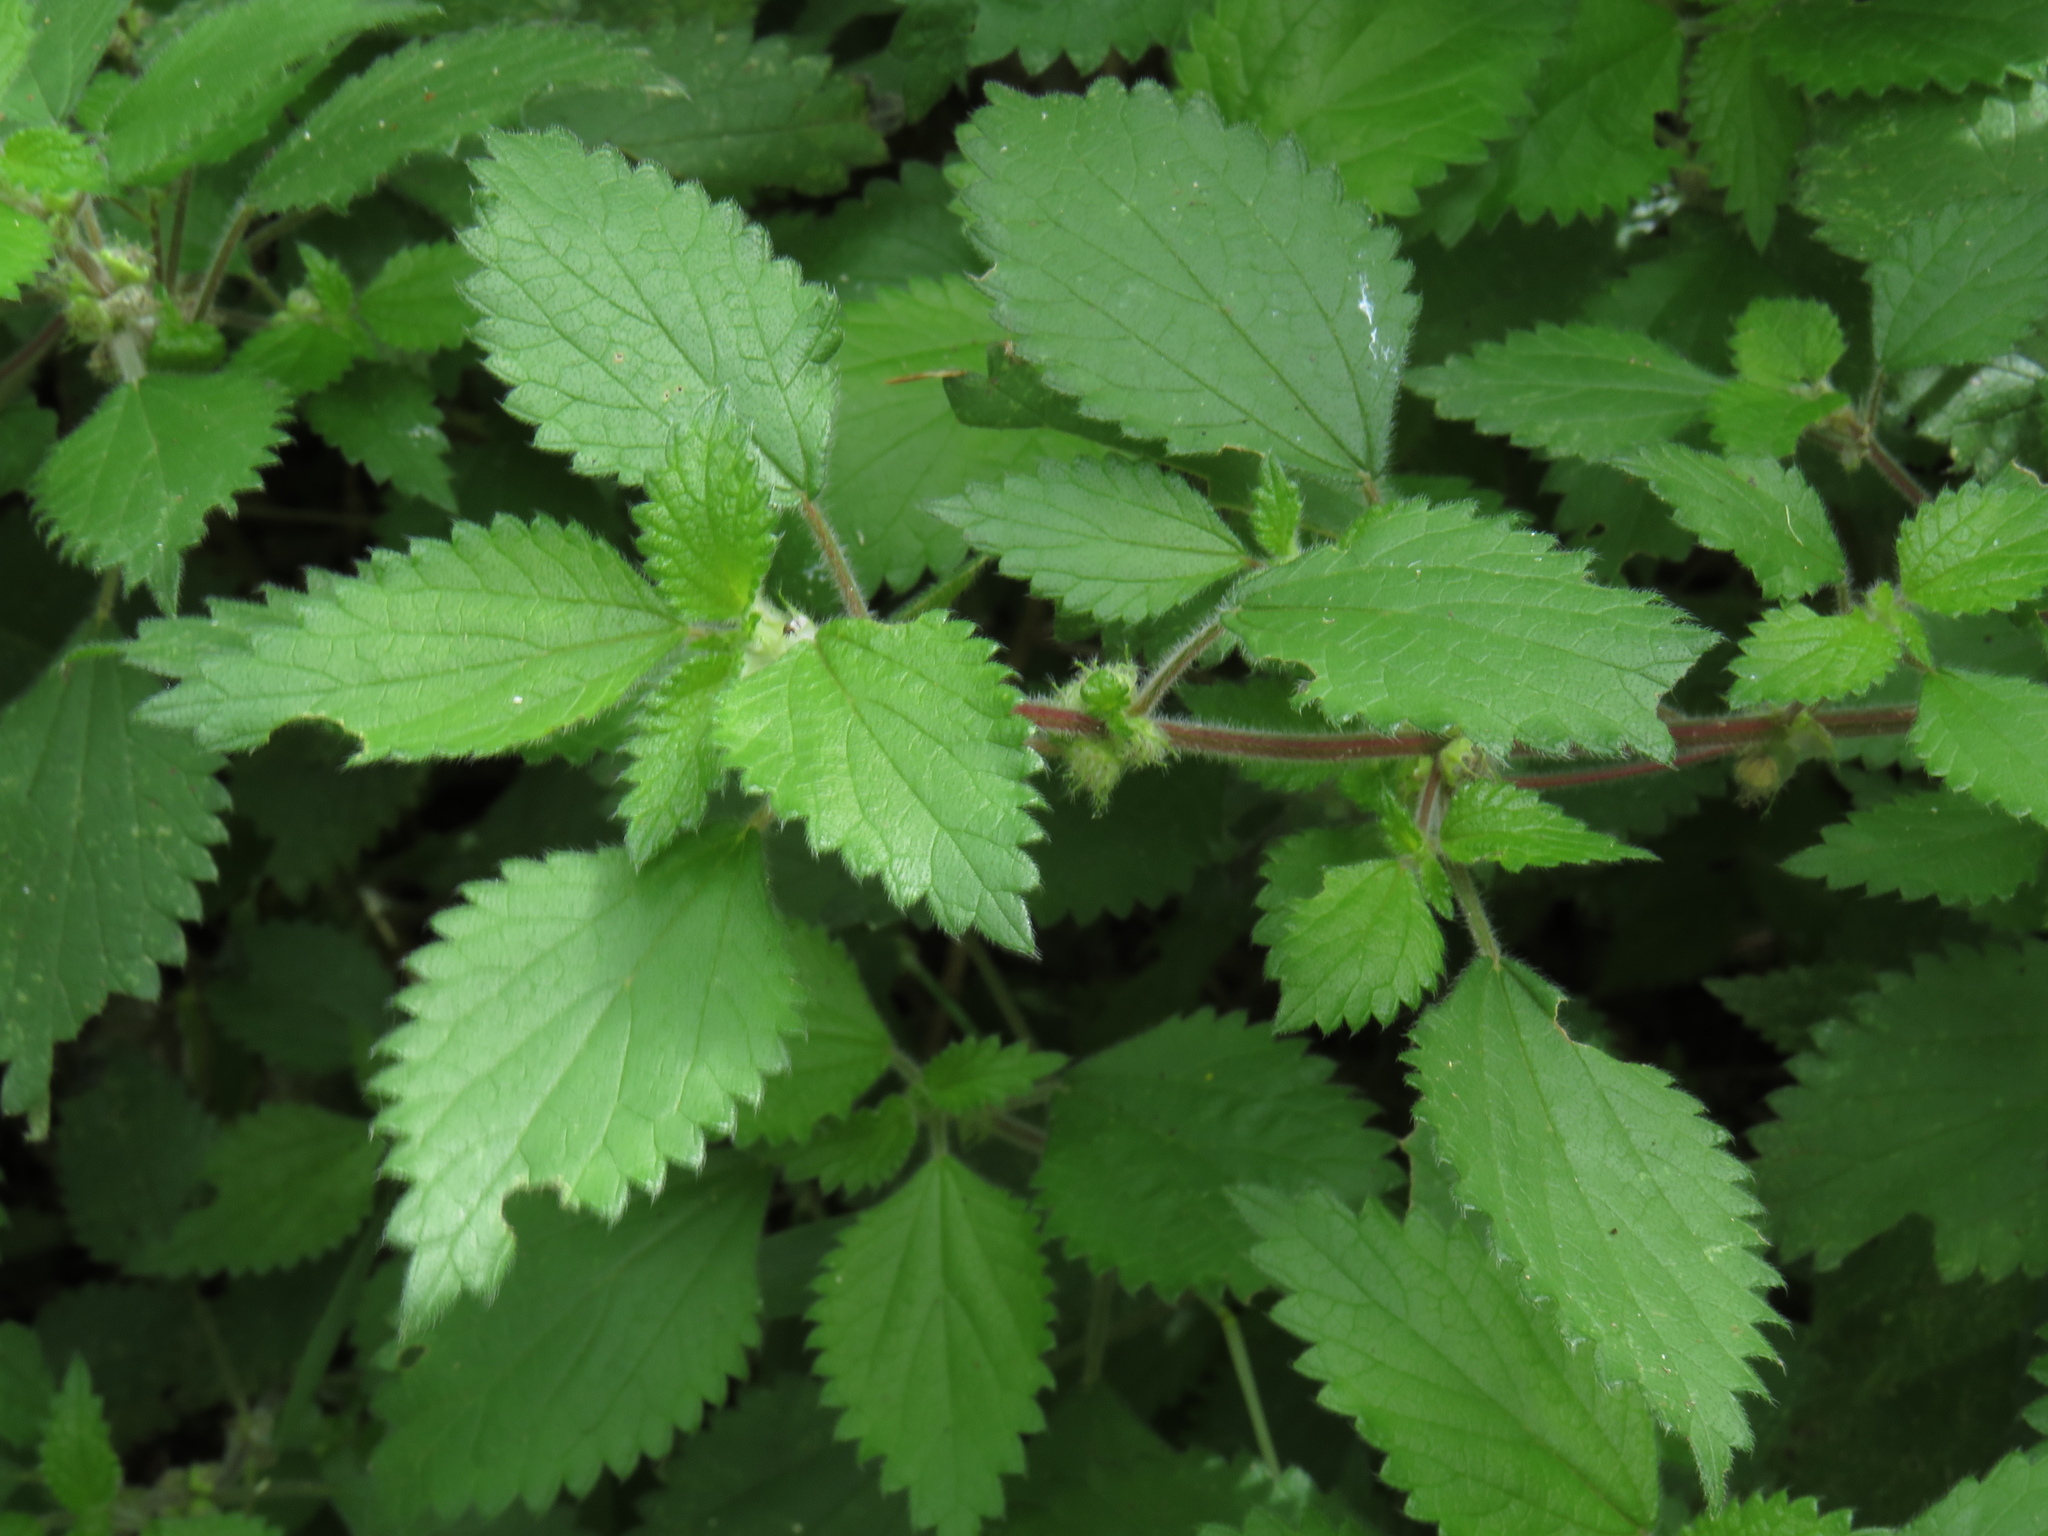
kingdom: Plantae
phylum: Tracheophyta
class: Magnoliopsida
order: Rosales
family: Urticaceae
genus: Droguetia
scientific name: Droguetia iners
